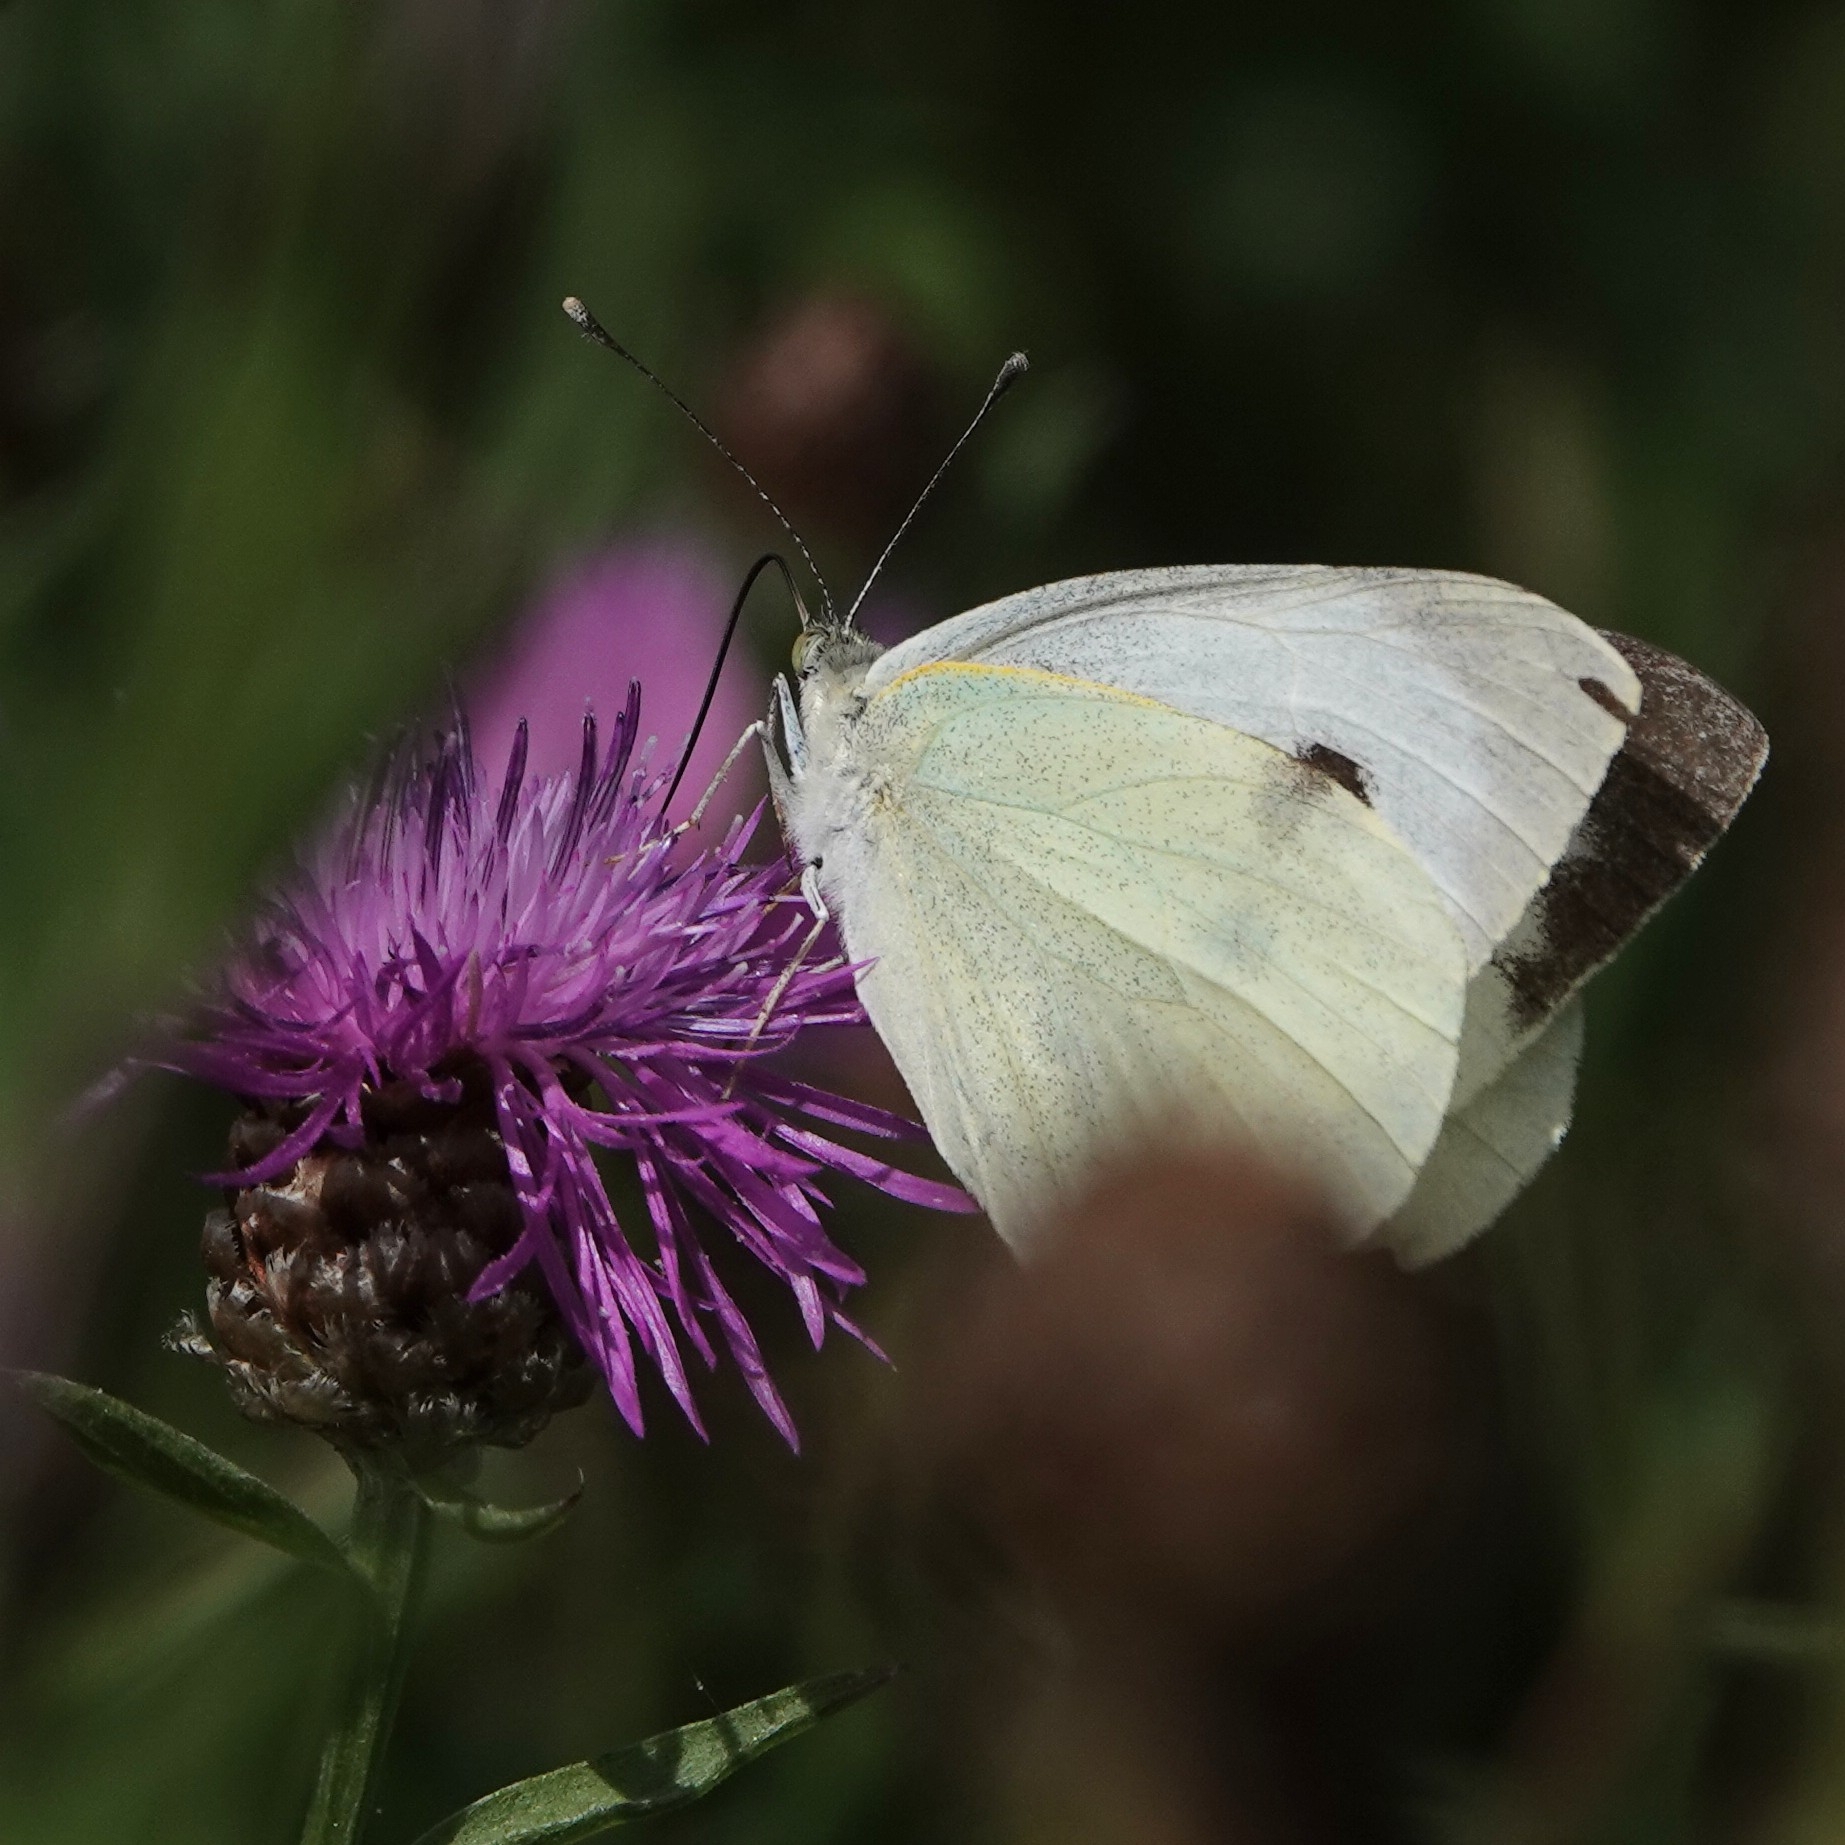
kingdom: Animalia
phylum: Arthropoda
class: Insecta
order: Lepidoptera
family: Pieridae
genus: Pieris
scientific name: Pieris brassicae
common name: Large white
